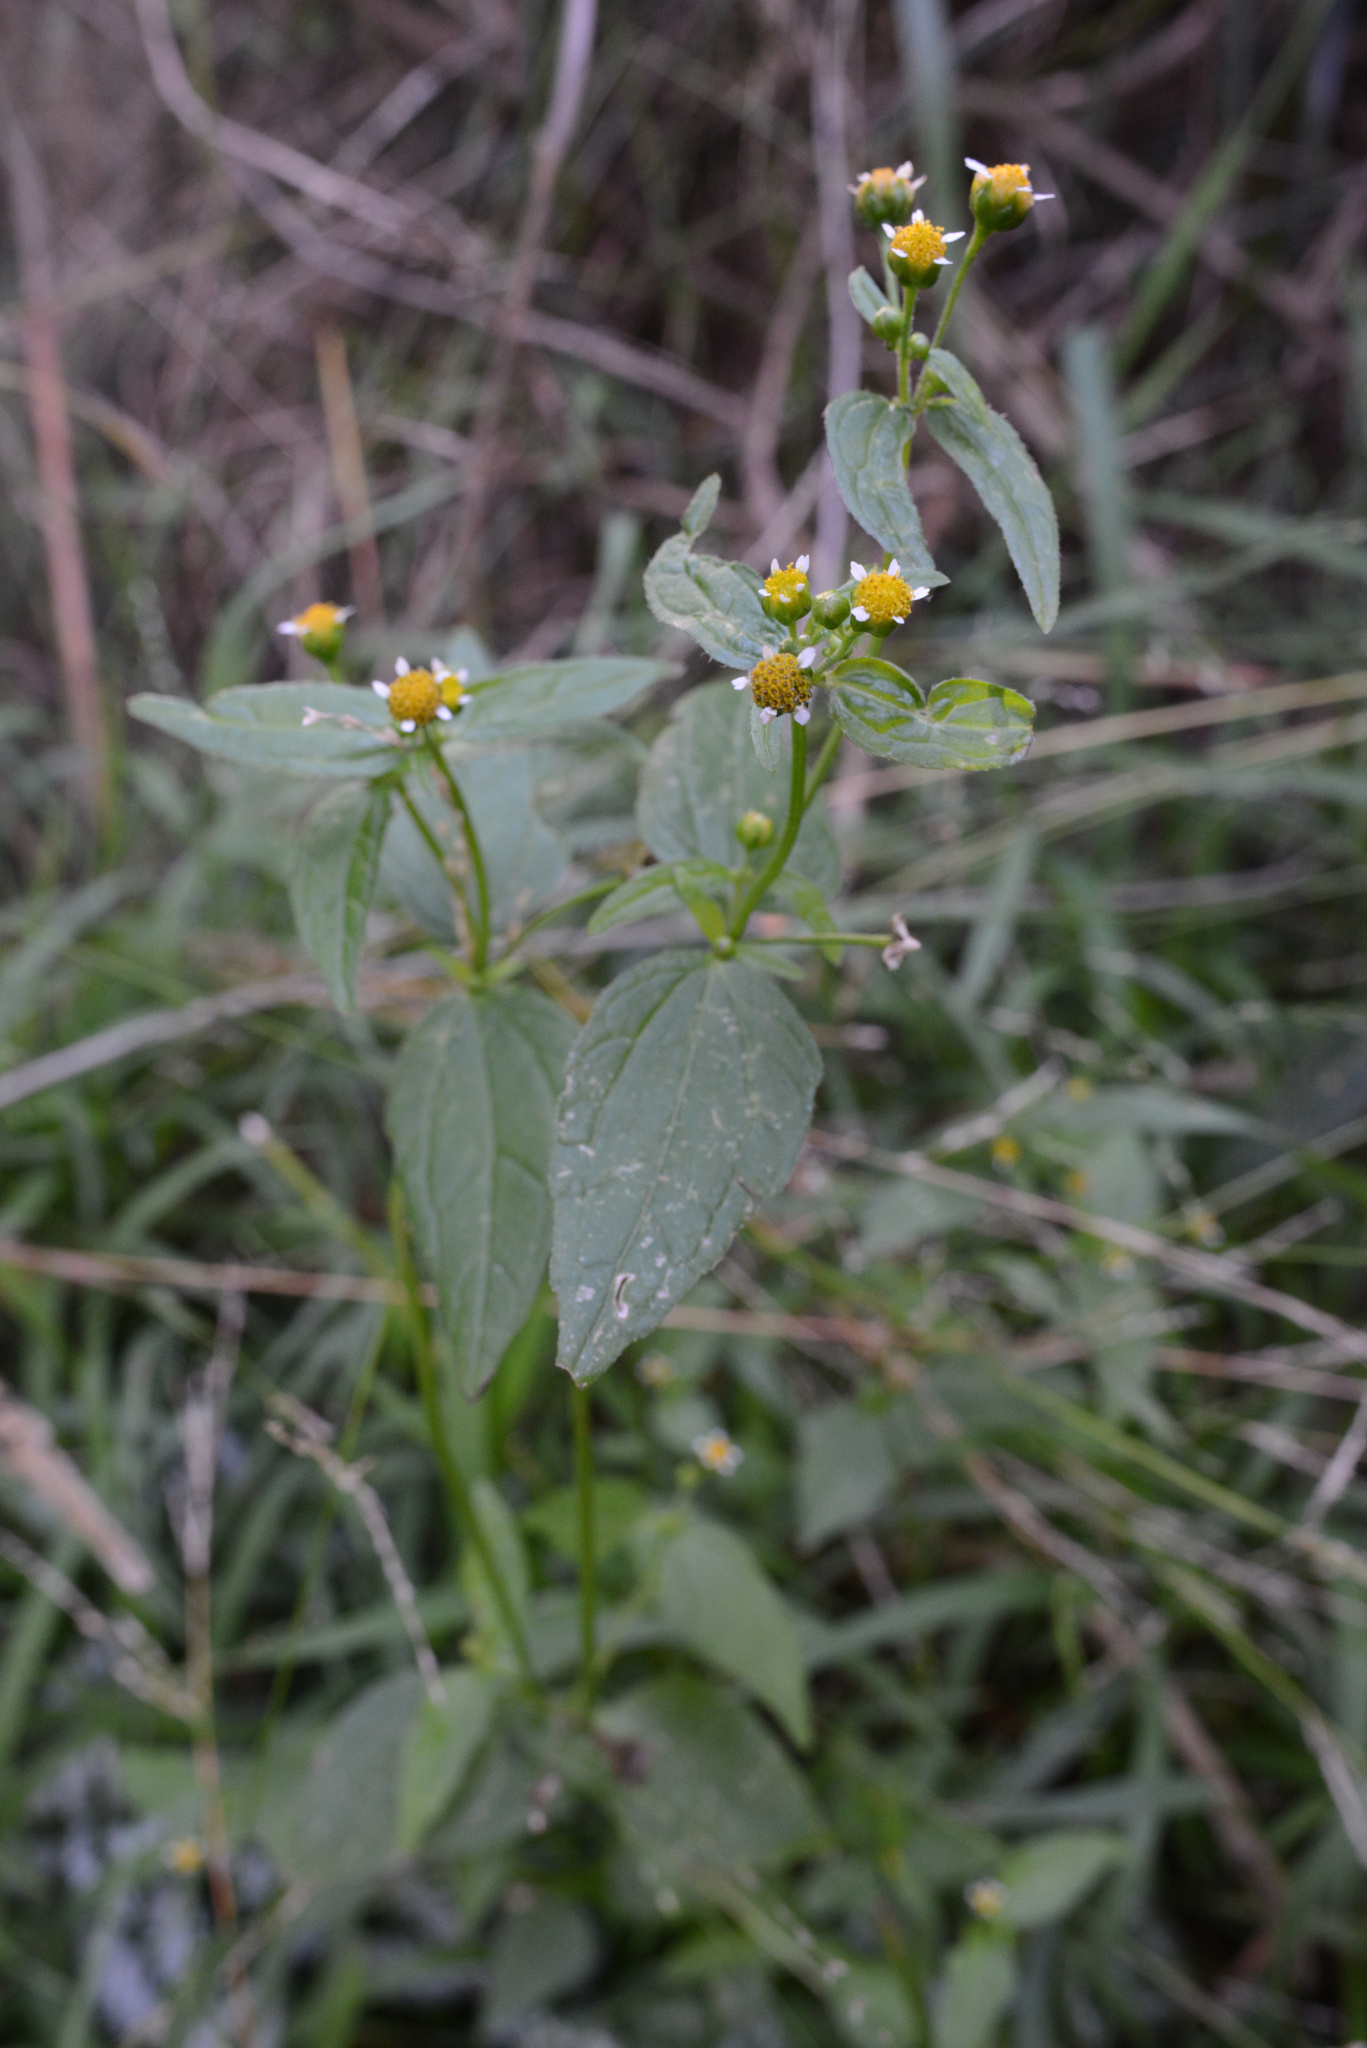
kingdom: Plantae
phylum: Tracheophyta
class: Magnoliopsida
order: Asterales
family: Asteraceae
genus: Galinsoga
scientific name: Galinsoga parviflora
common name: Gallant soldier
